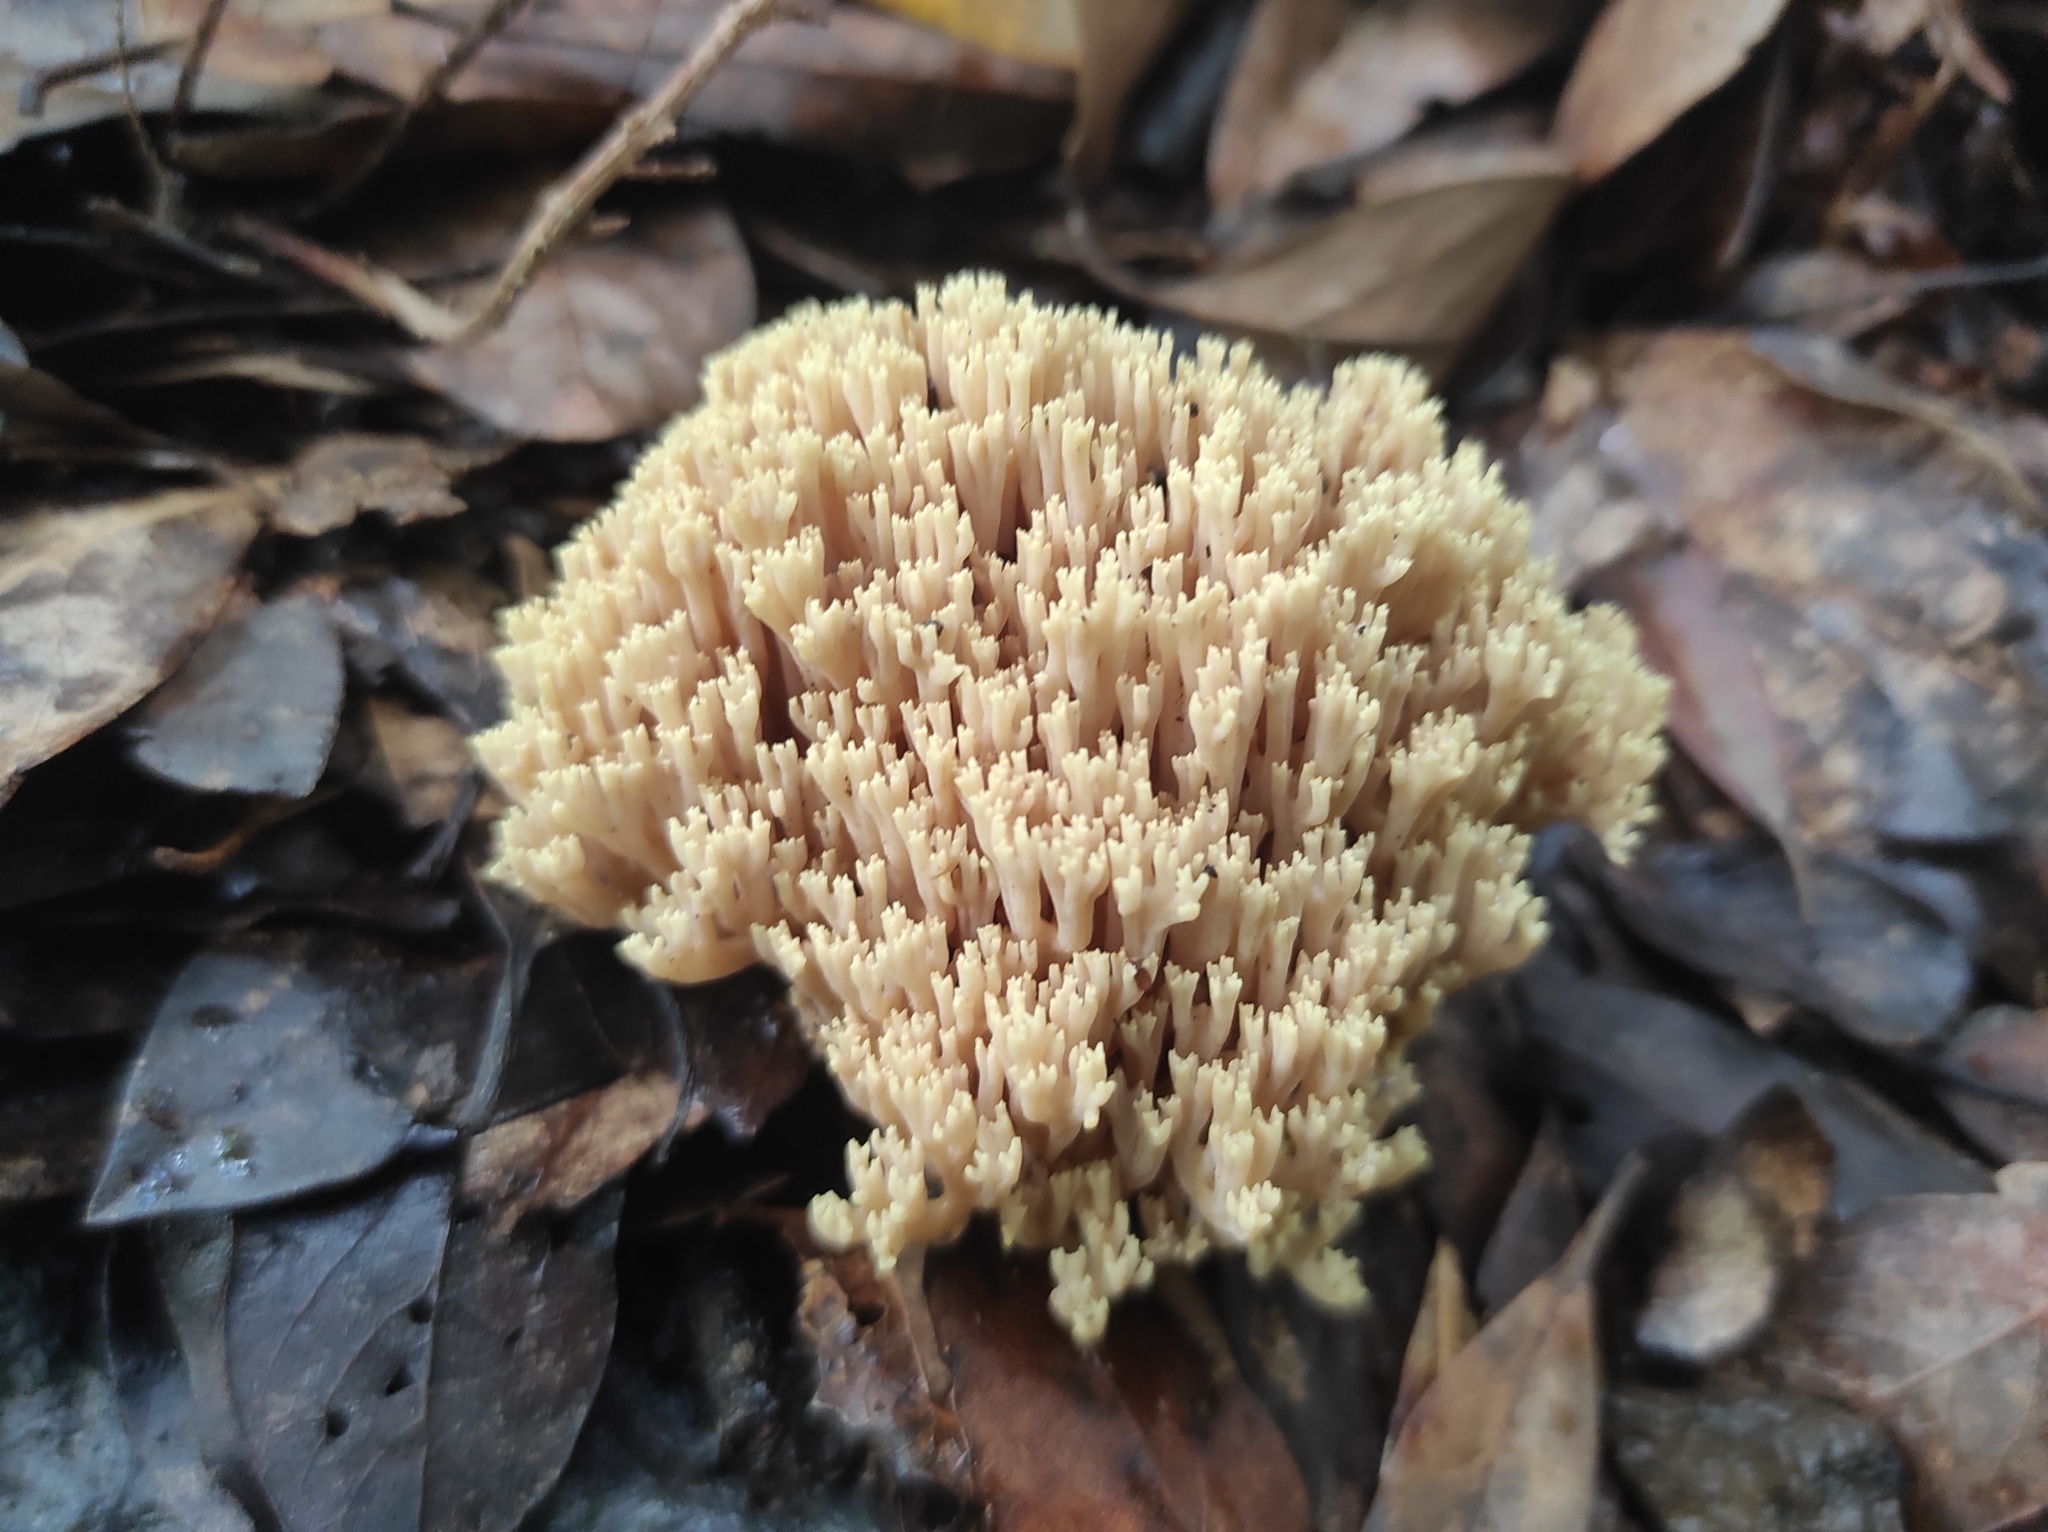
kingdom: Fungi
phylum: Basidiomycota
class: Agaricomycetes
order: Gomphales
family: Gomphaceae
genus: Ramaria
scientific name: Ramaria stricta
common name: Upright coral
